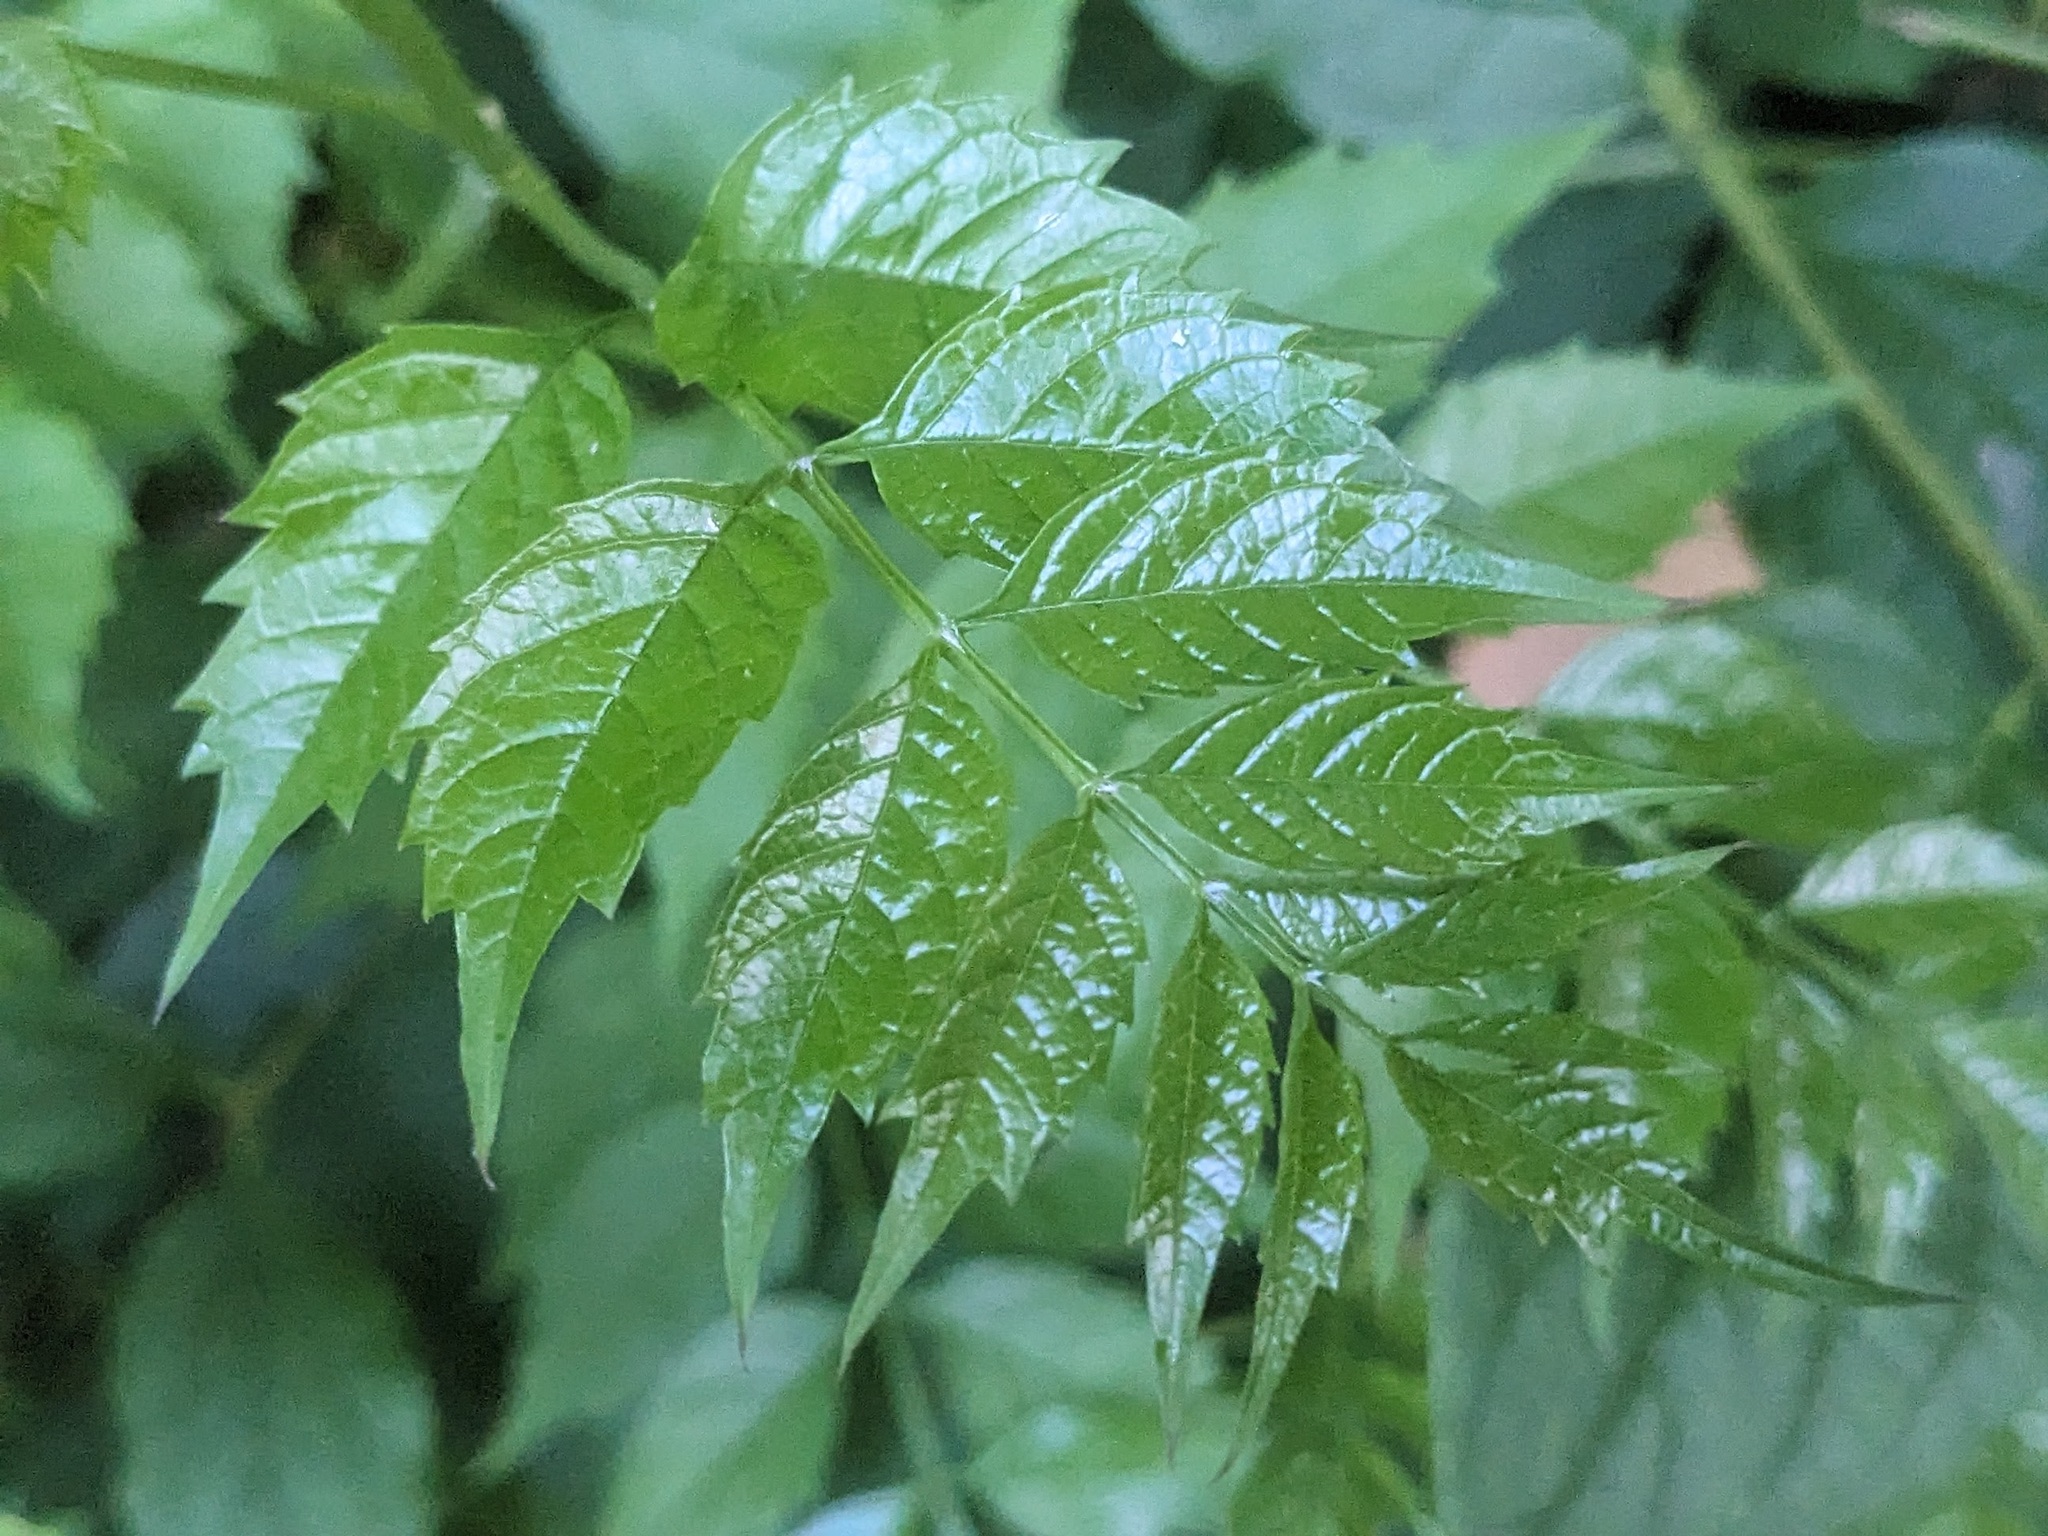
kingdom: Plantae
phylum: Tracheophyta
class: Magnoliopsida
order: Lamiales
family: Bignoniaceae
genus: Campsis
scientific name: Campsis radicans
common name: Trumpet-creeper
